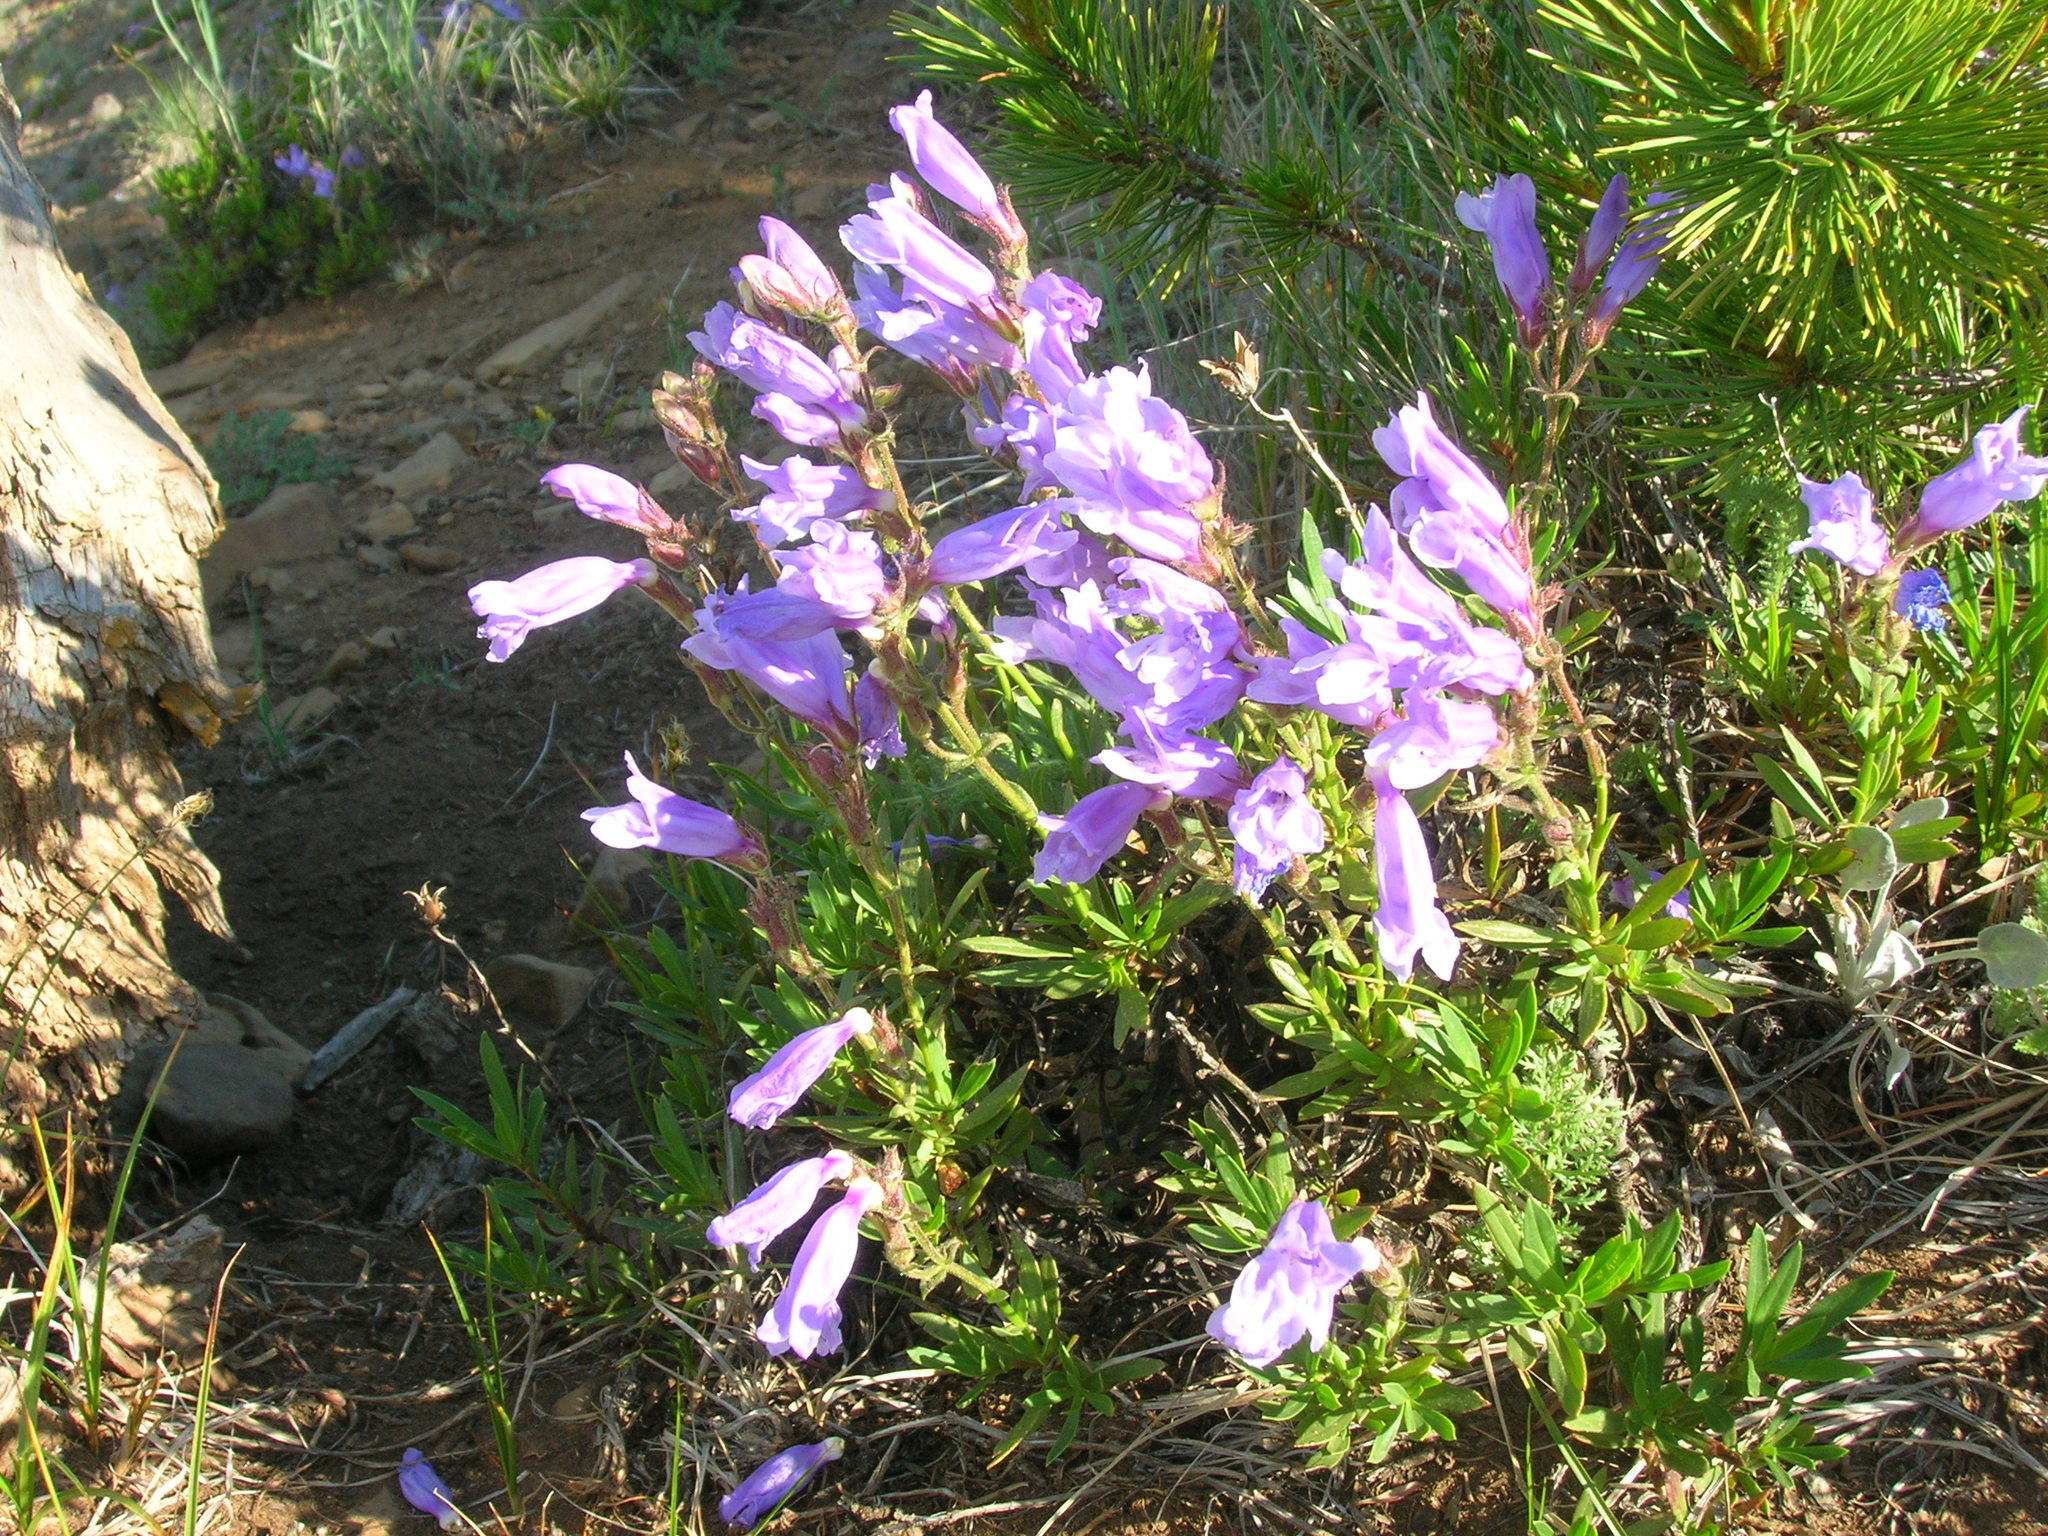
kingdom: Plantae
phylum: Tracheophyta
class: Magnoliopsida
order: Lamiales
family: Plantaginaceae
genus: Penstemon
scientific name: Penstemon fruticosus
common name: Bush penstemon
